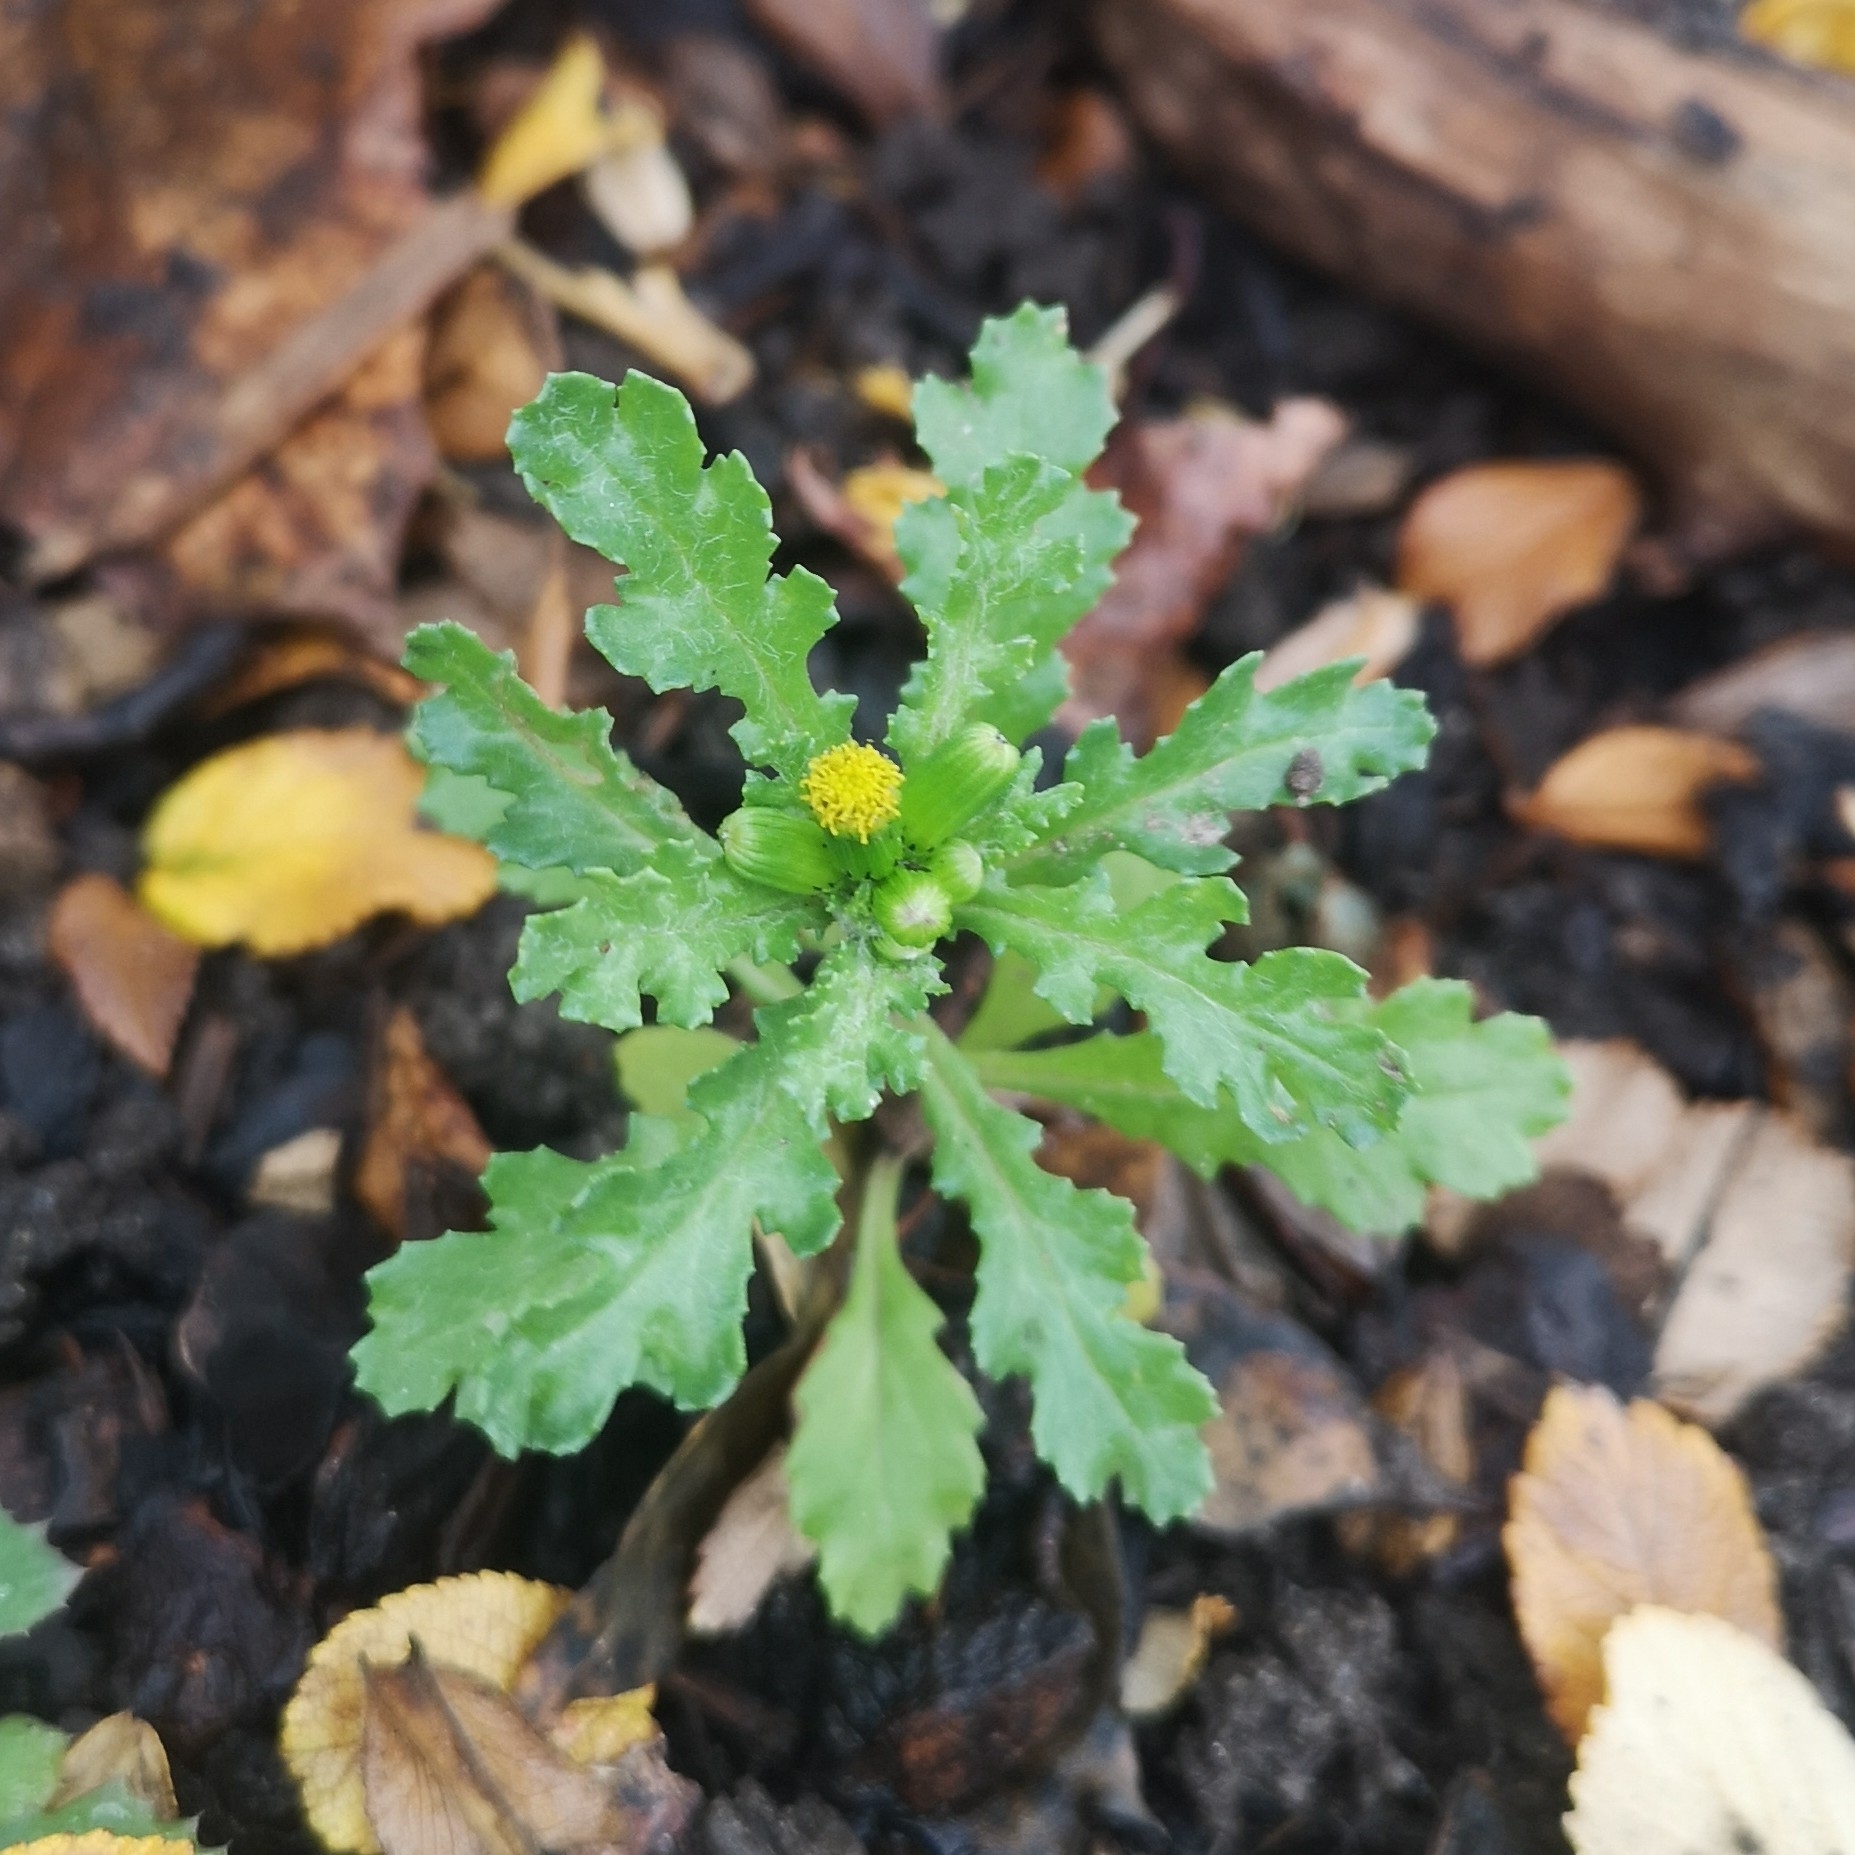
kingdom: Plantae
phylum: Tracheophyta
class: Magnoliopsida
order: Asterales
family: Asteraceae
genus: Senecio
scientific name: Senecio vulgaris
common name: Old-man-in-the-spring
